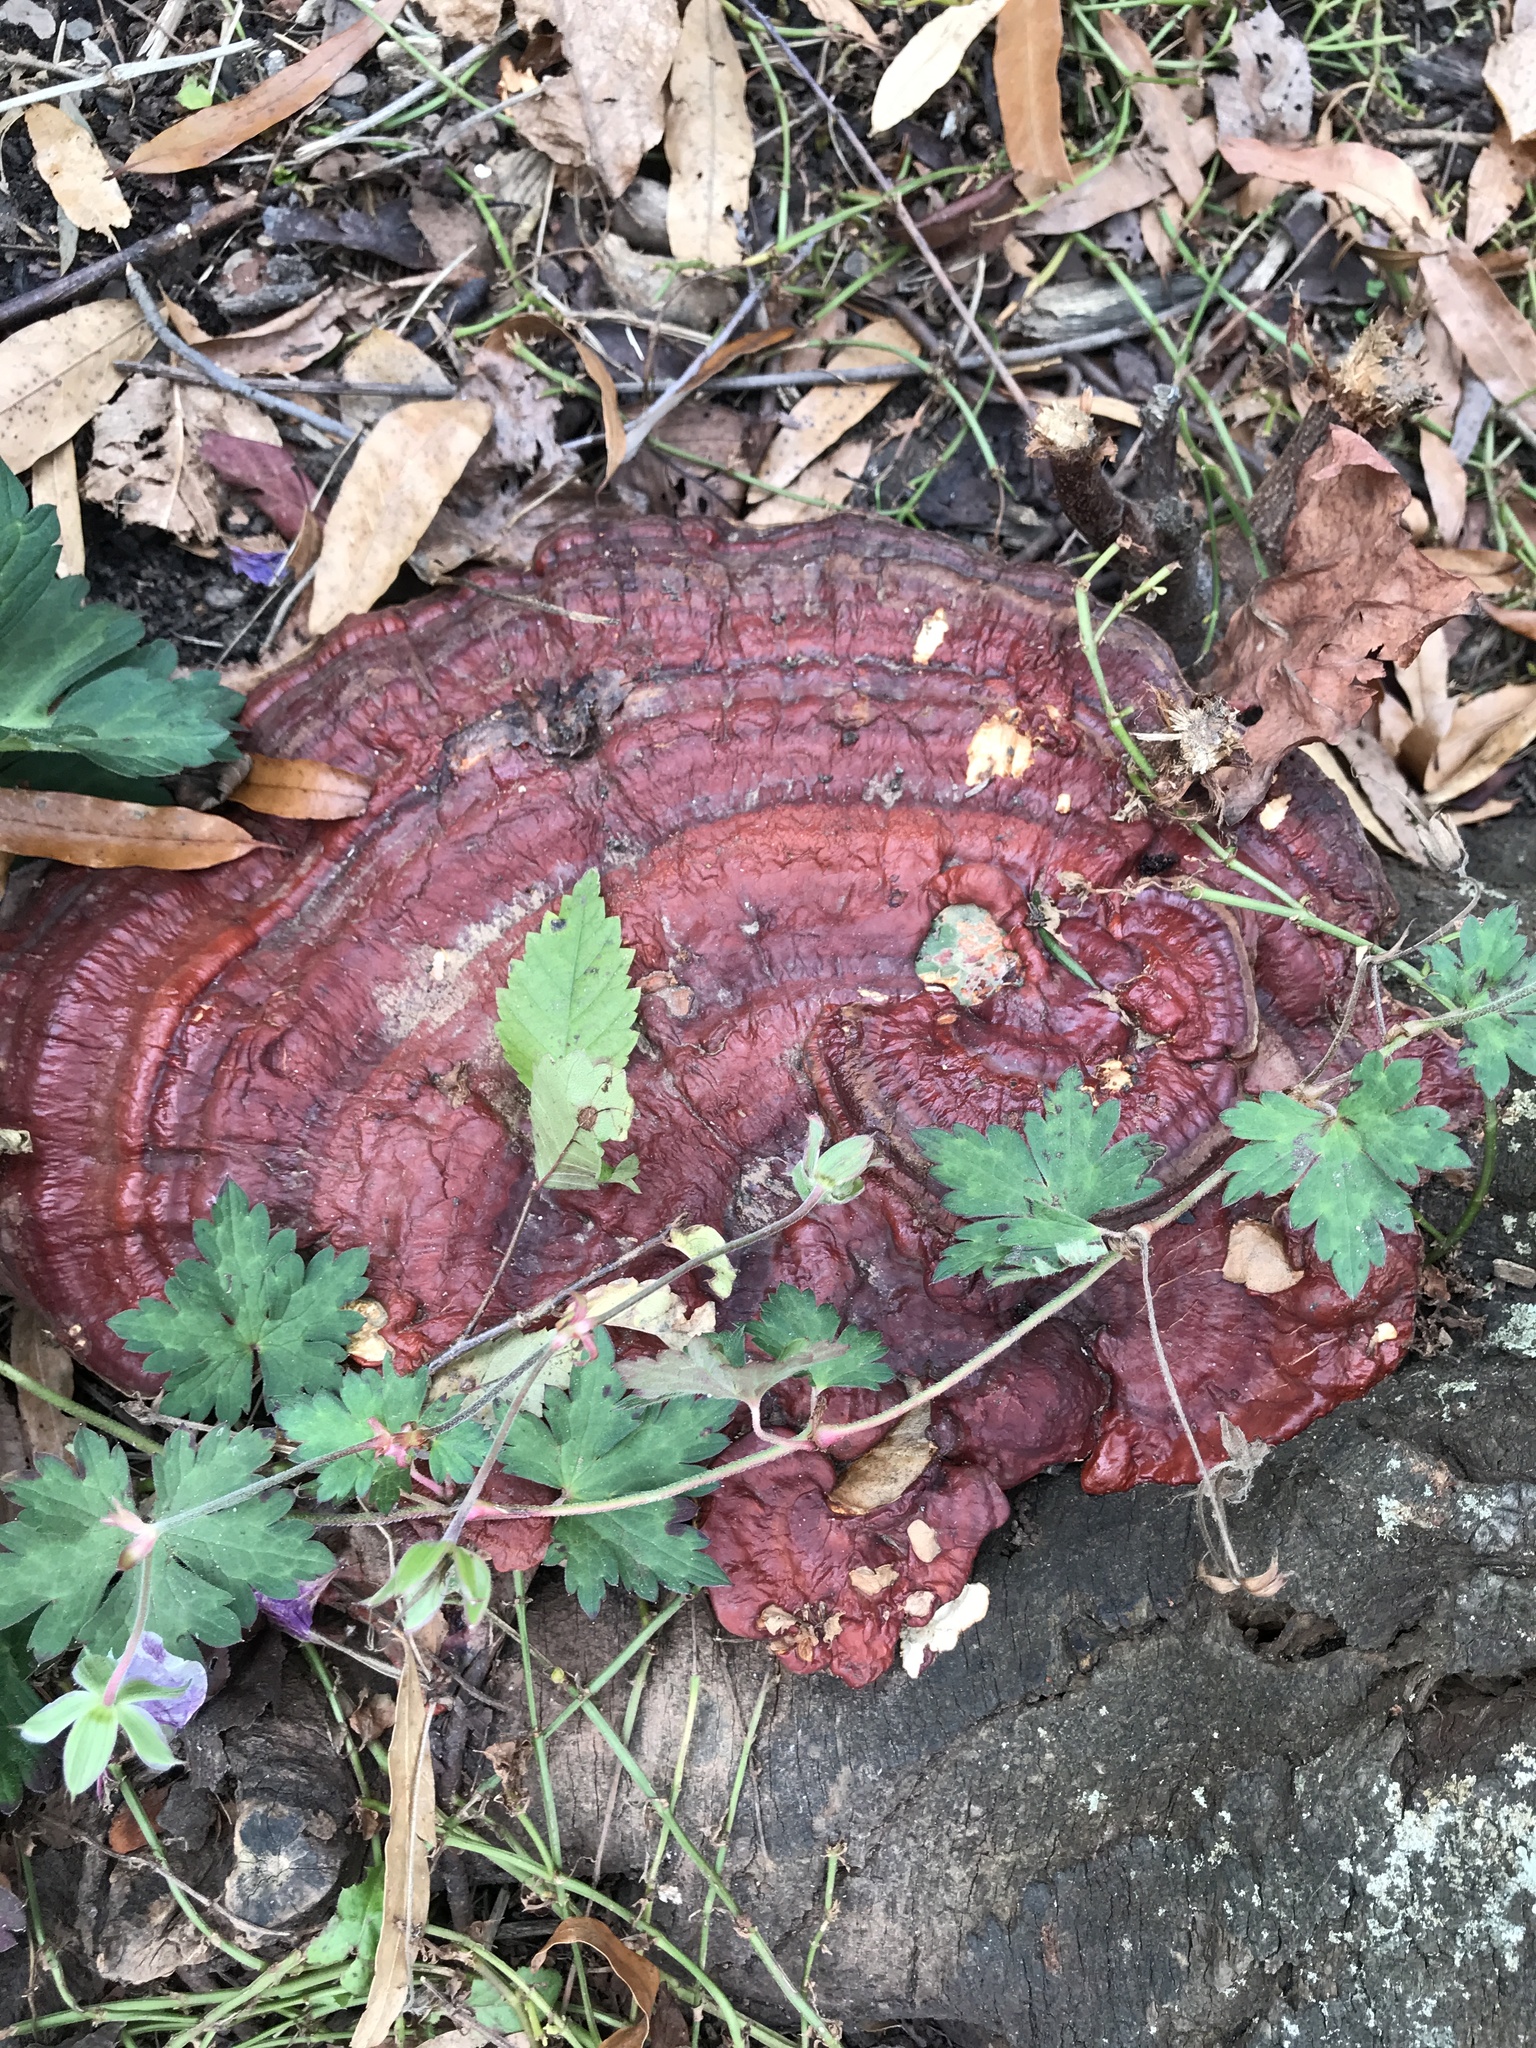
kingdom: Fungi
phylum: Basidiomycota
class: Agaricomycetes
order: Polyporales
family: Polyporaceae
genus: Ganoderma
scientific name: Ganoderma resinaceum
